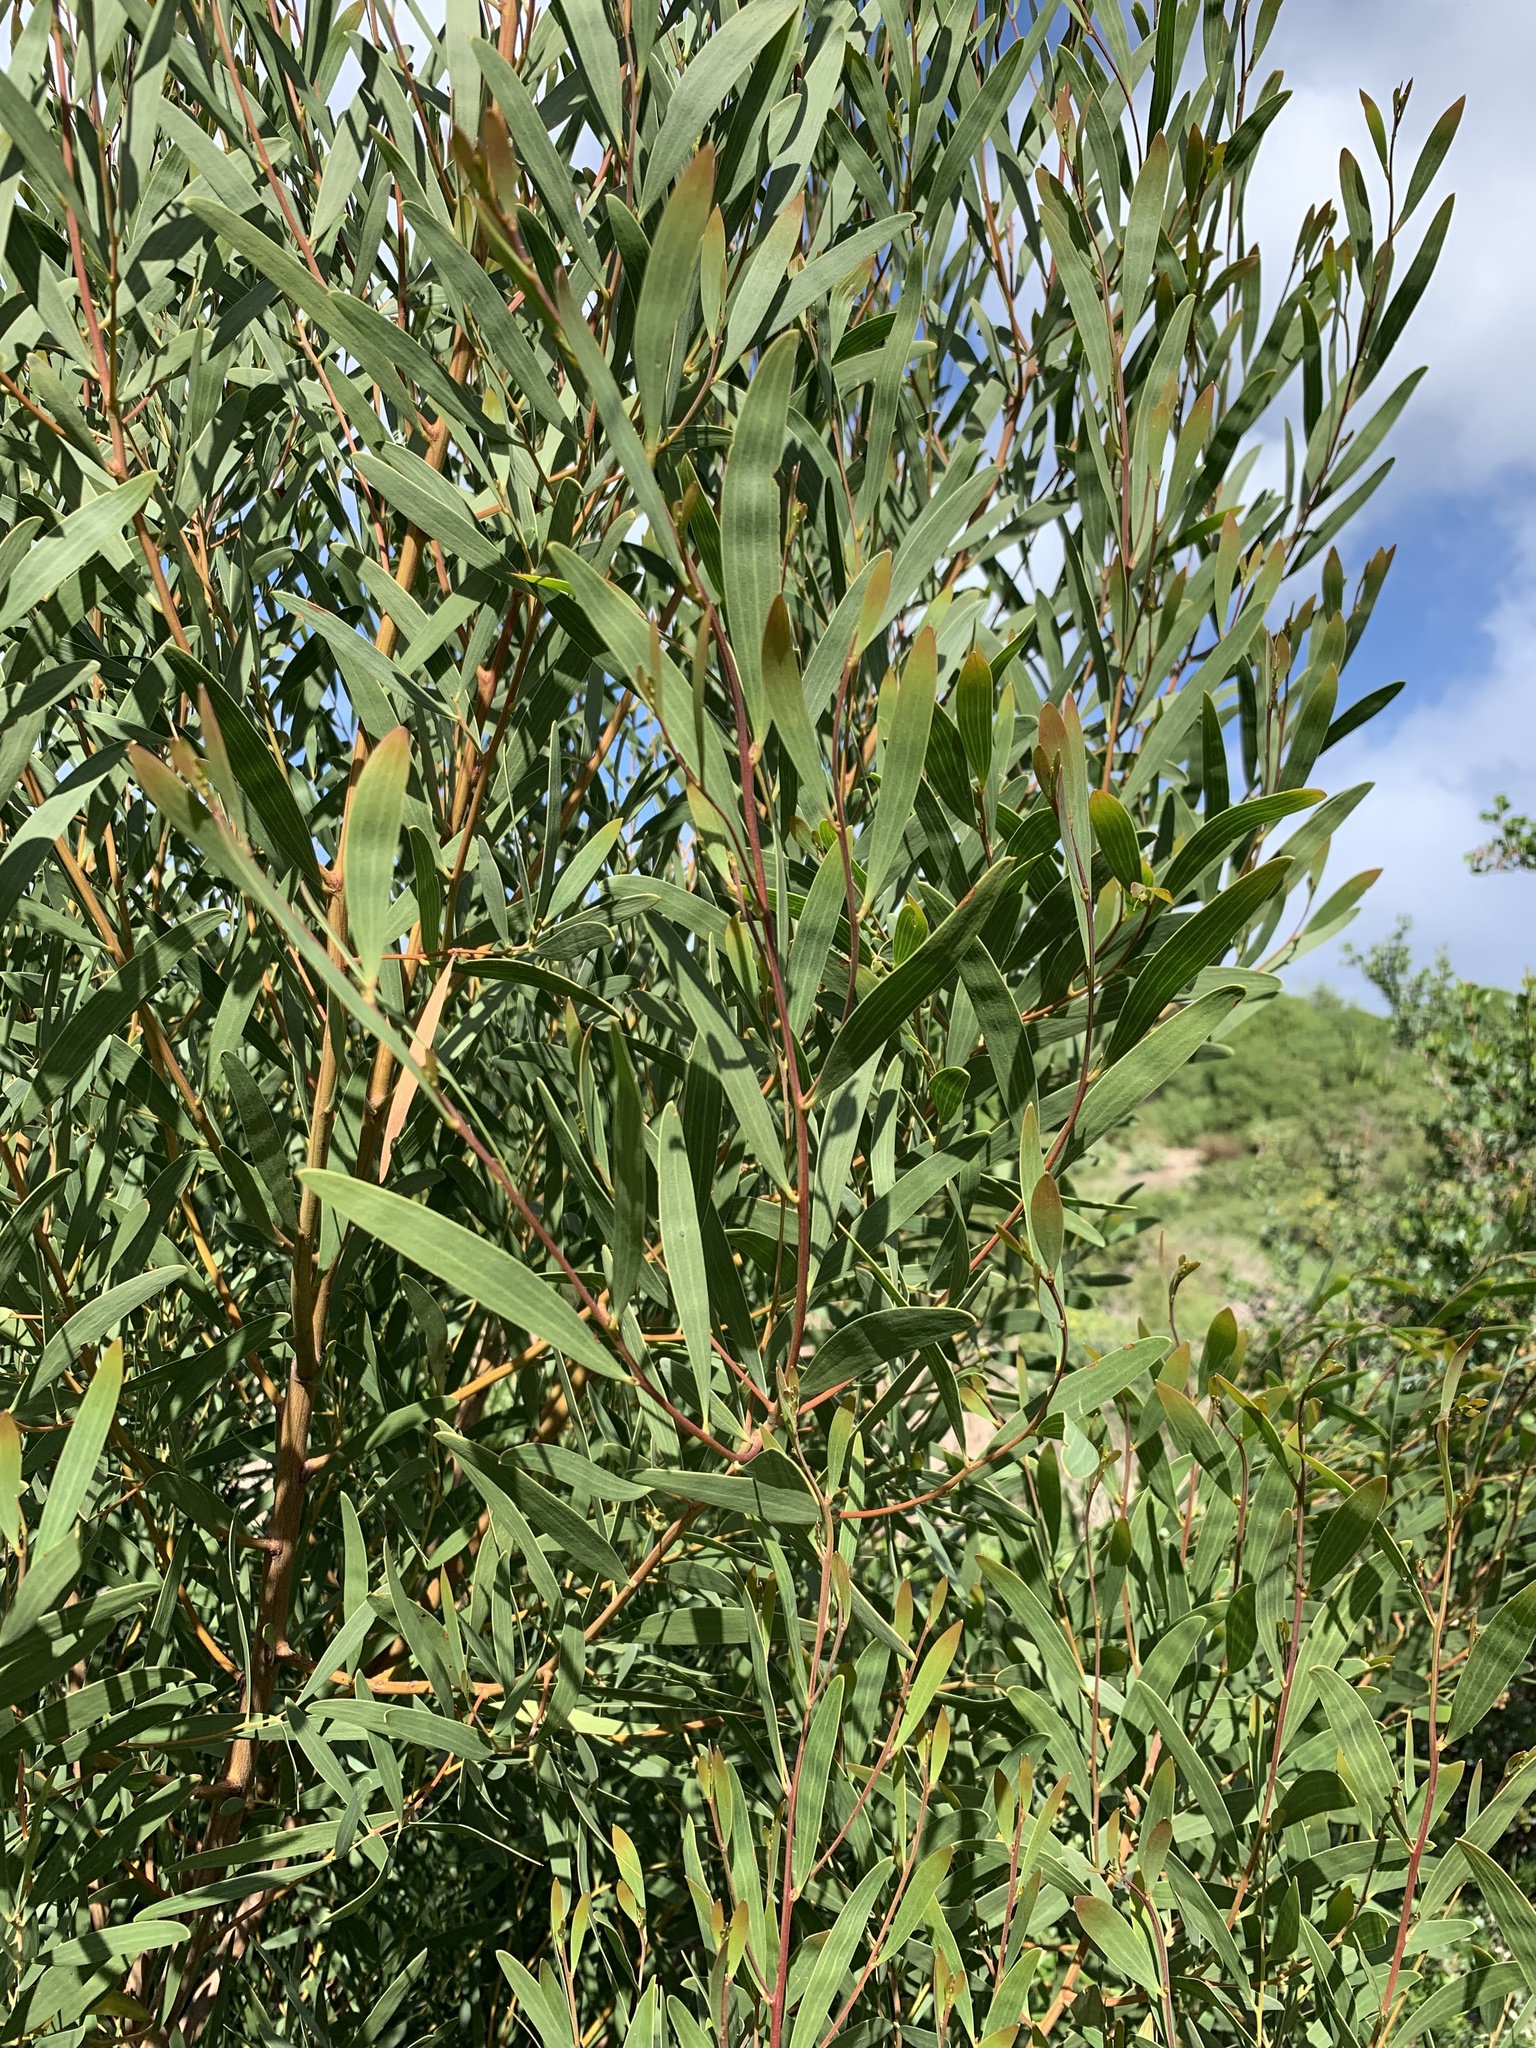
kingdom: Plantae
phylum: Tracheophyta
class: Magnoliopsida
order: Fabales
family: Fabaceae
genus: Acacia
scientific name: Acacia cyclops
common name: Coastal wattle
